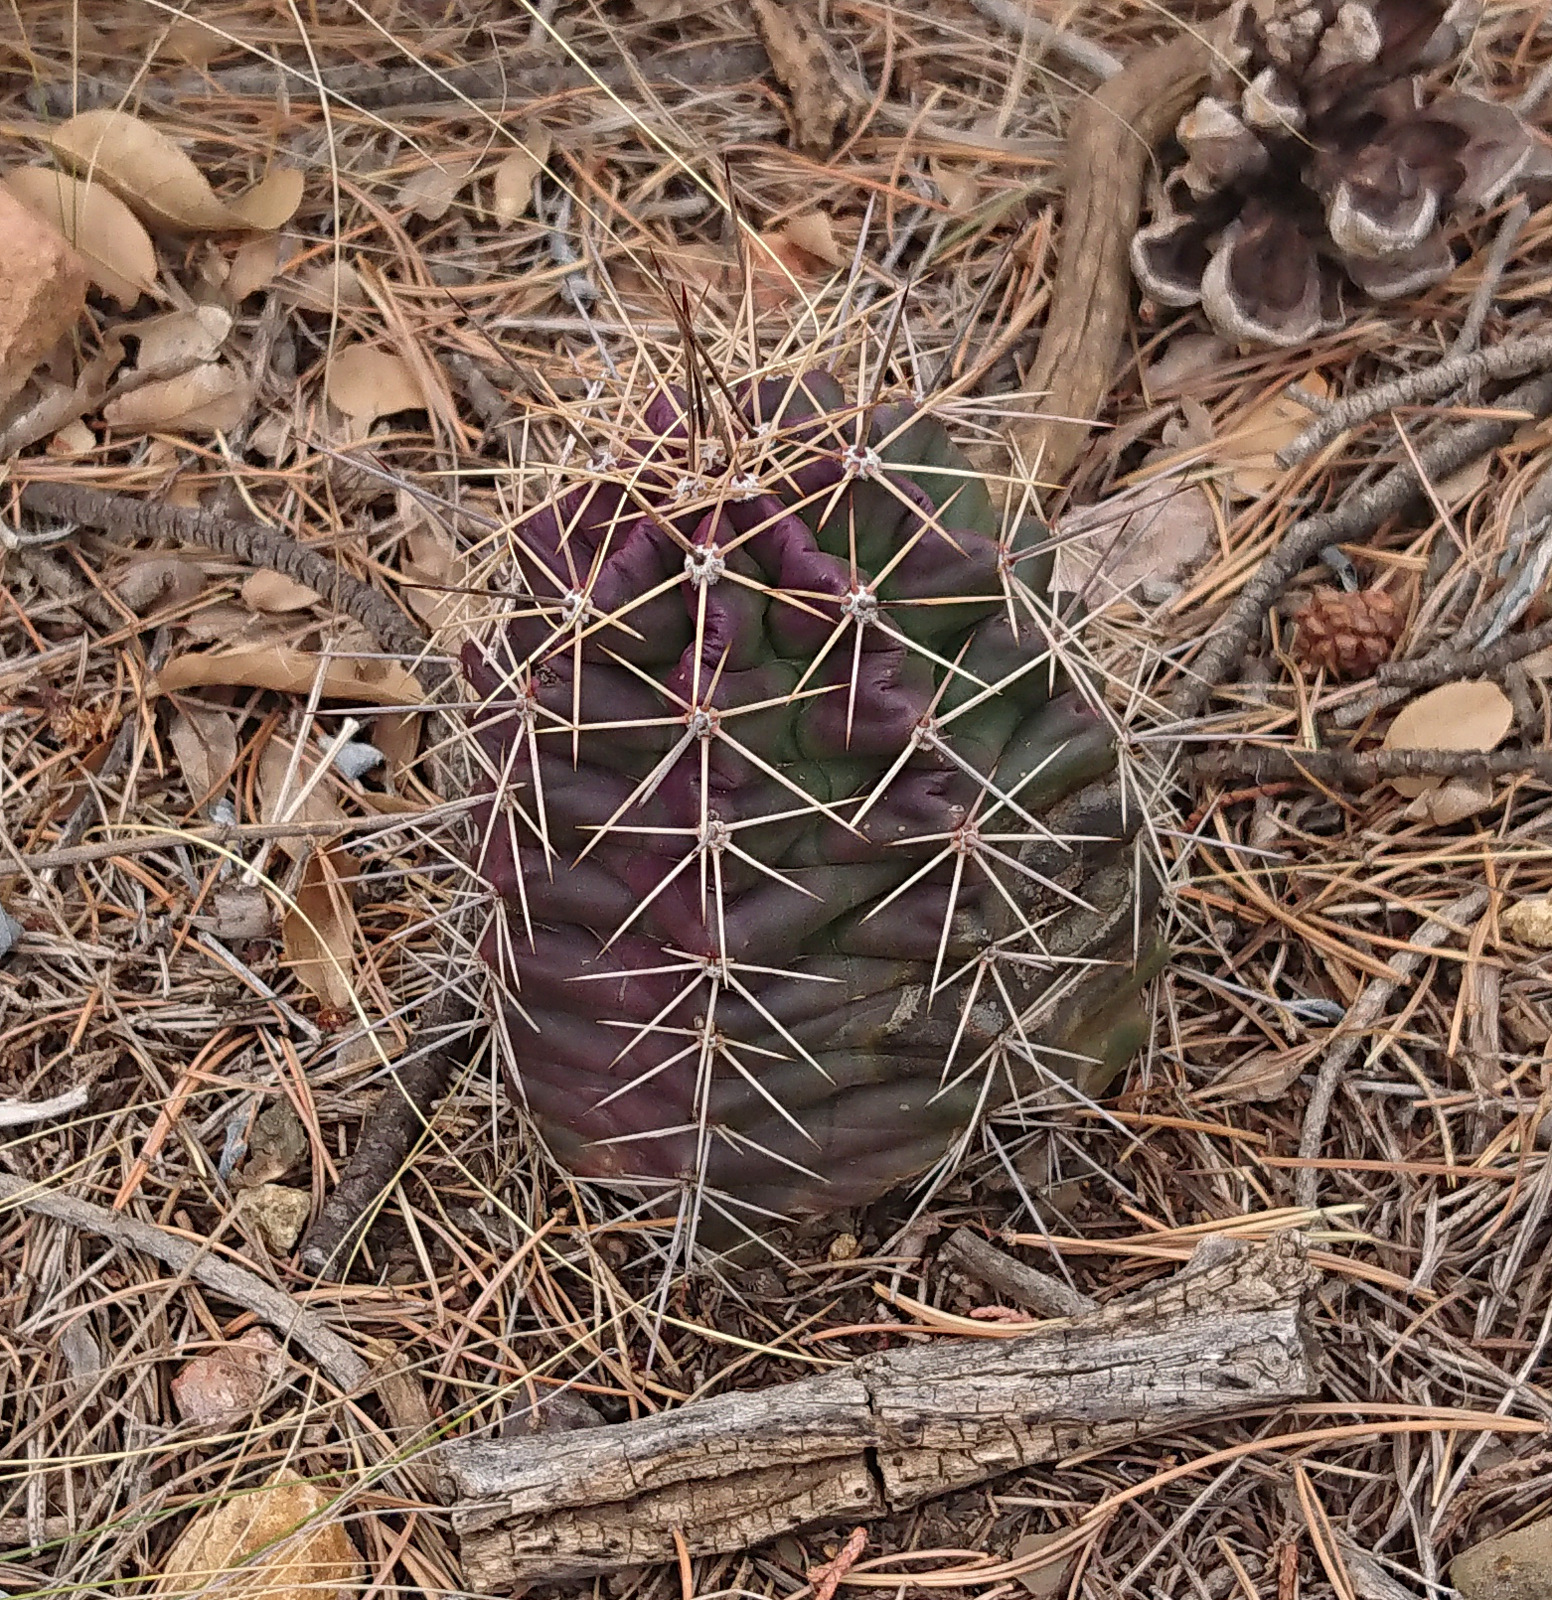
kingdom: Plantae
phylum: Tracheophyta
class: Magnoliopsida
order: Caryophyllales
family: Cactaceae
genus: Echinocereus
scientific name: Echinocereus coccineus
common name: Scarlet hedgehog cactus
